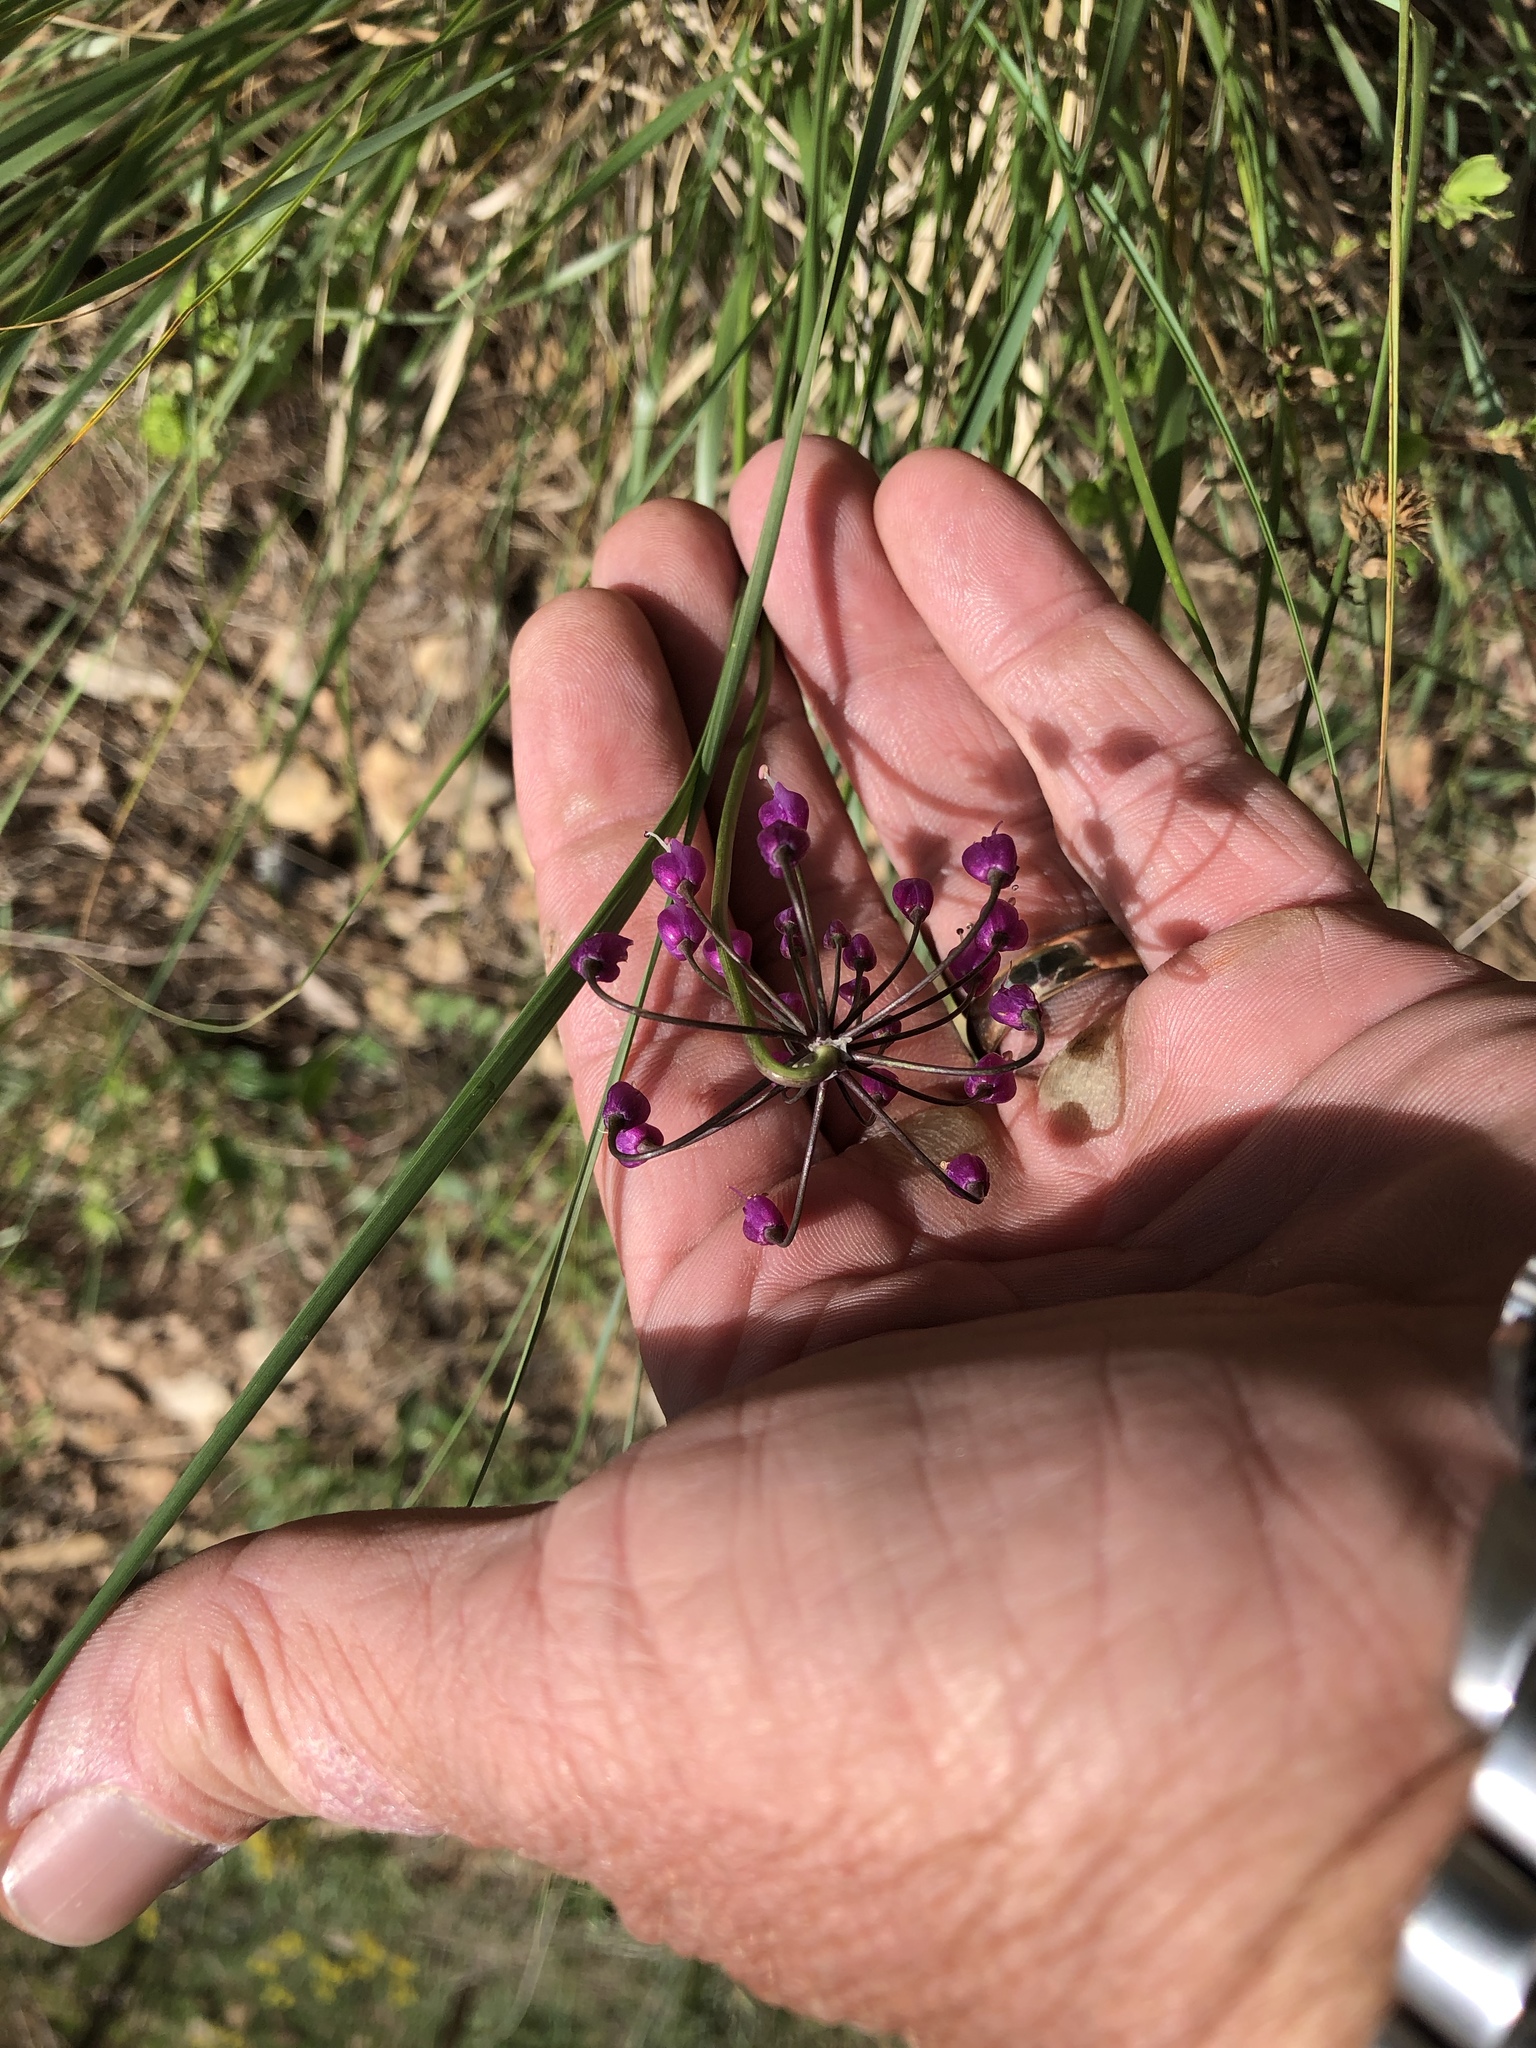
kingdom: Plantae
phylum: Tracheophyta
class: Liliopsida
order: Asparagales
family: Amaryllidaceae
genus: Allium
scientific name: Allium cernuum
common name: Nodding onion
